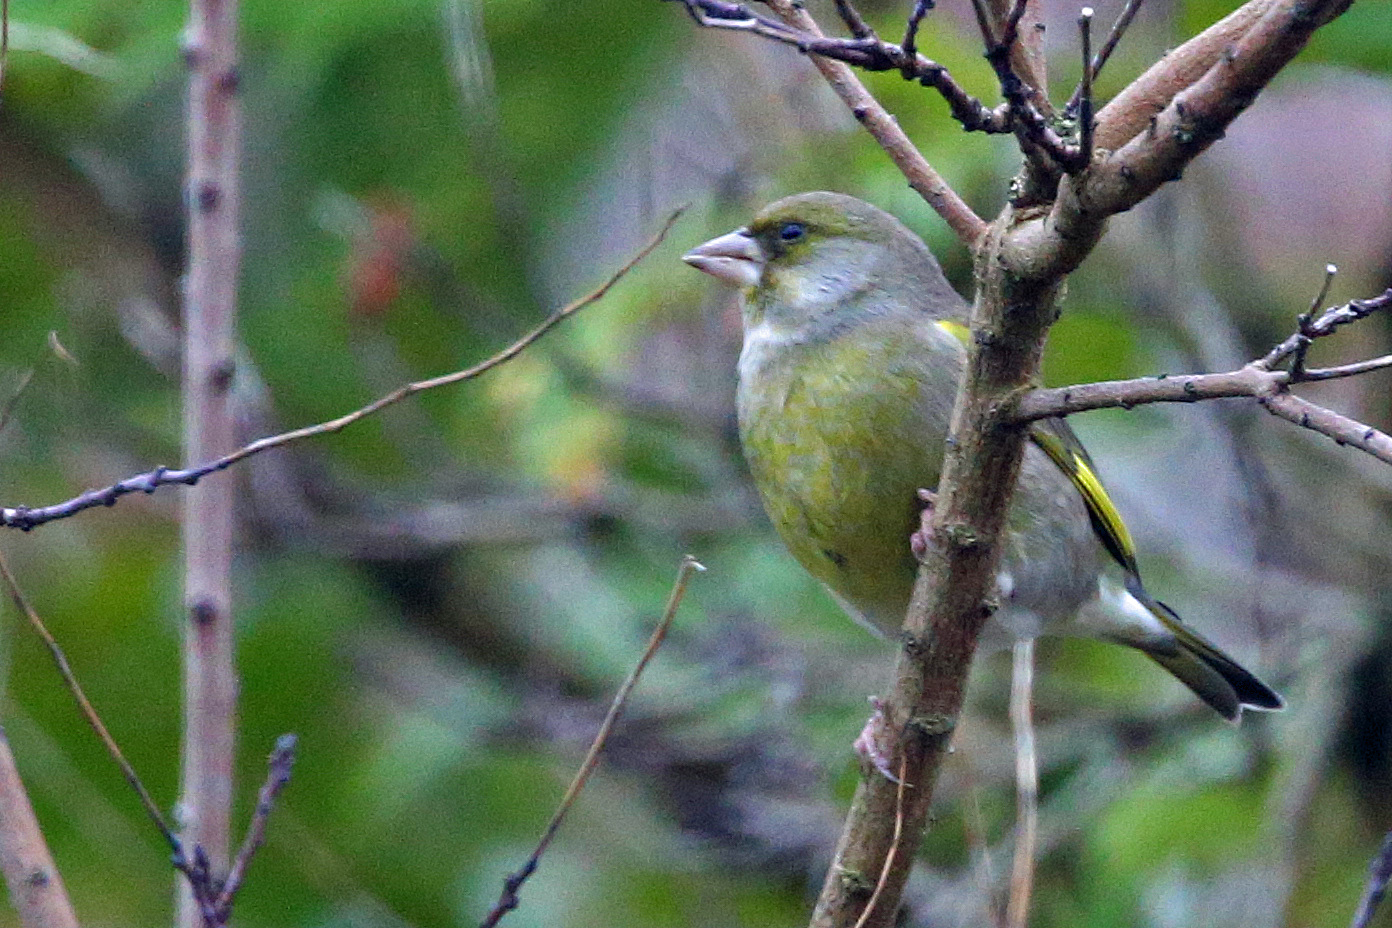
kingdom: Plantae
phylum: Tracheophyta
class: Liliopsida
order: Poales
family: Poaceae
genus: Chloris
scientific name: Chloris chloris
